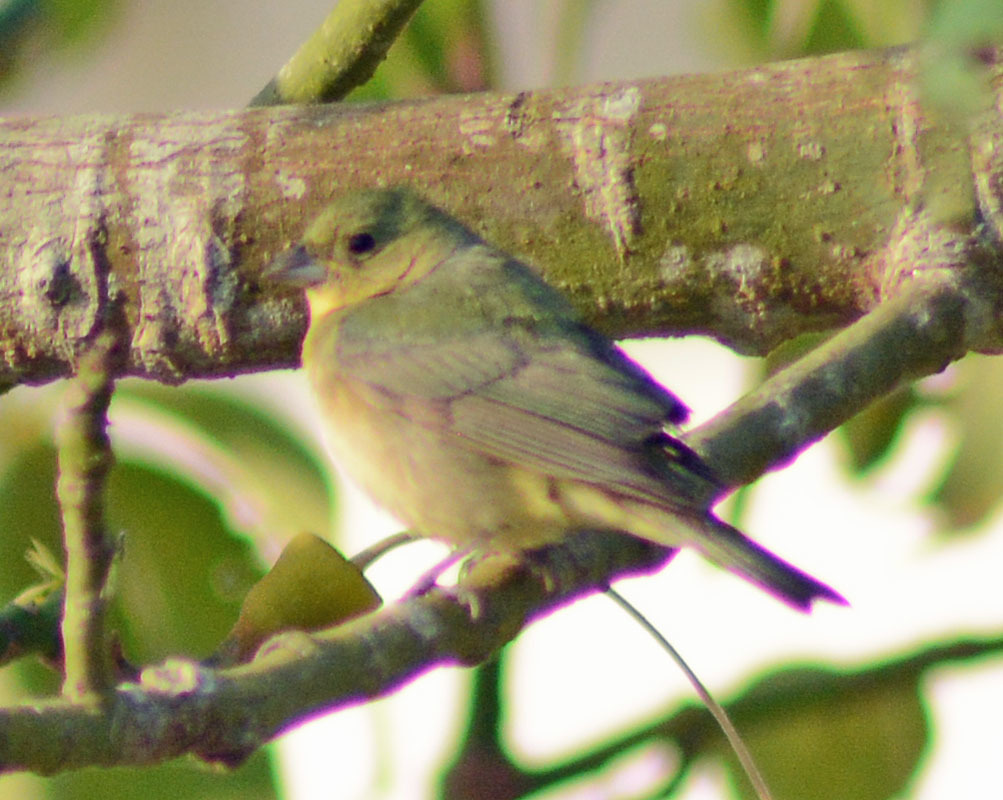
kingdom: Animalia
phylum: Chordata
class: Aves
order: Passeriformes
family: Cardinalidae
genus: Passerina
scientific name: Passerina ciris
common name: Painted bunting
